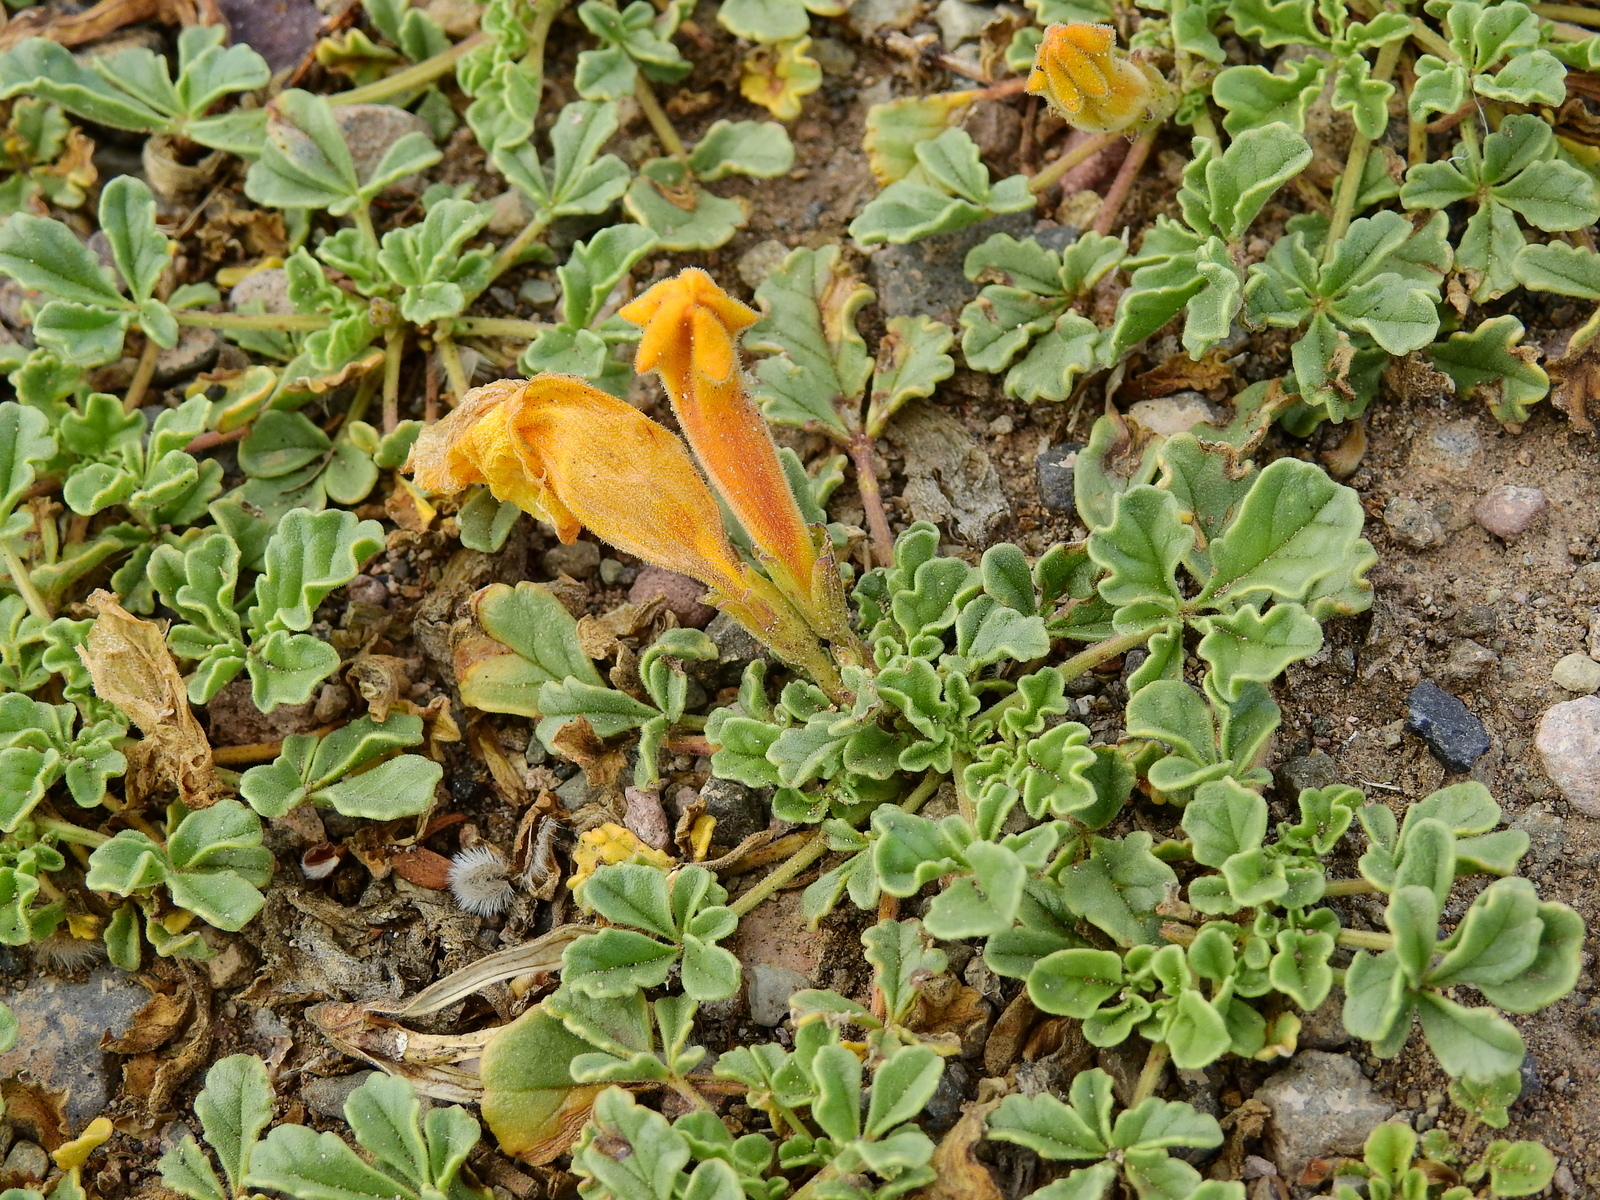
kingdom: Plantae
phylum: Tracheophyta
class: Magnoliopsida
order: Lamiales
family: Bignoniaceae
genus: Argylia
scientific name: Argylia uspallatensis
